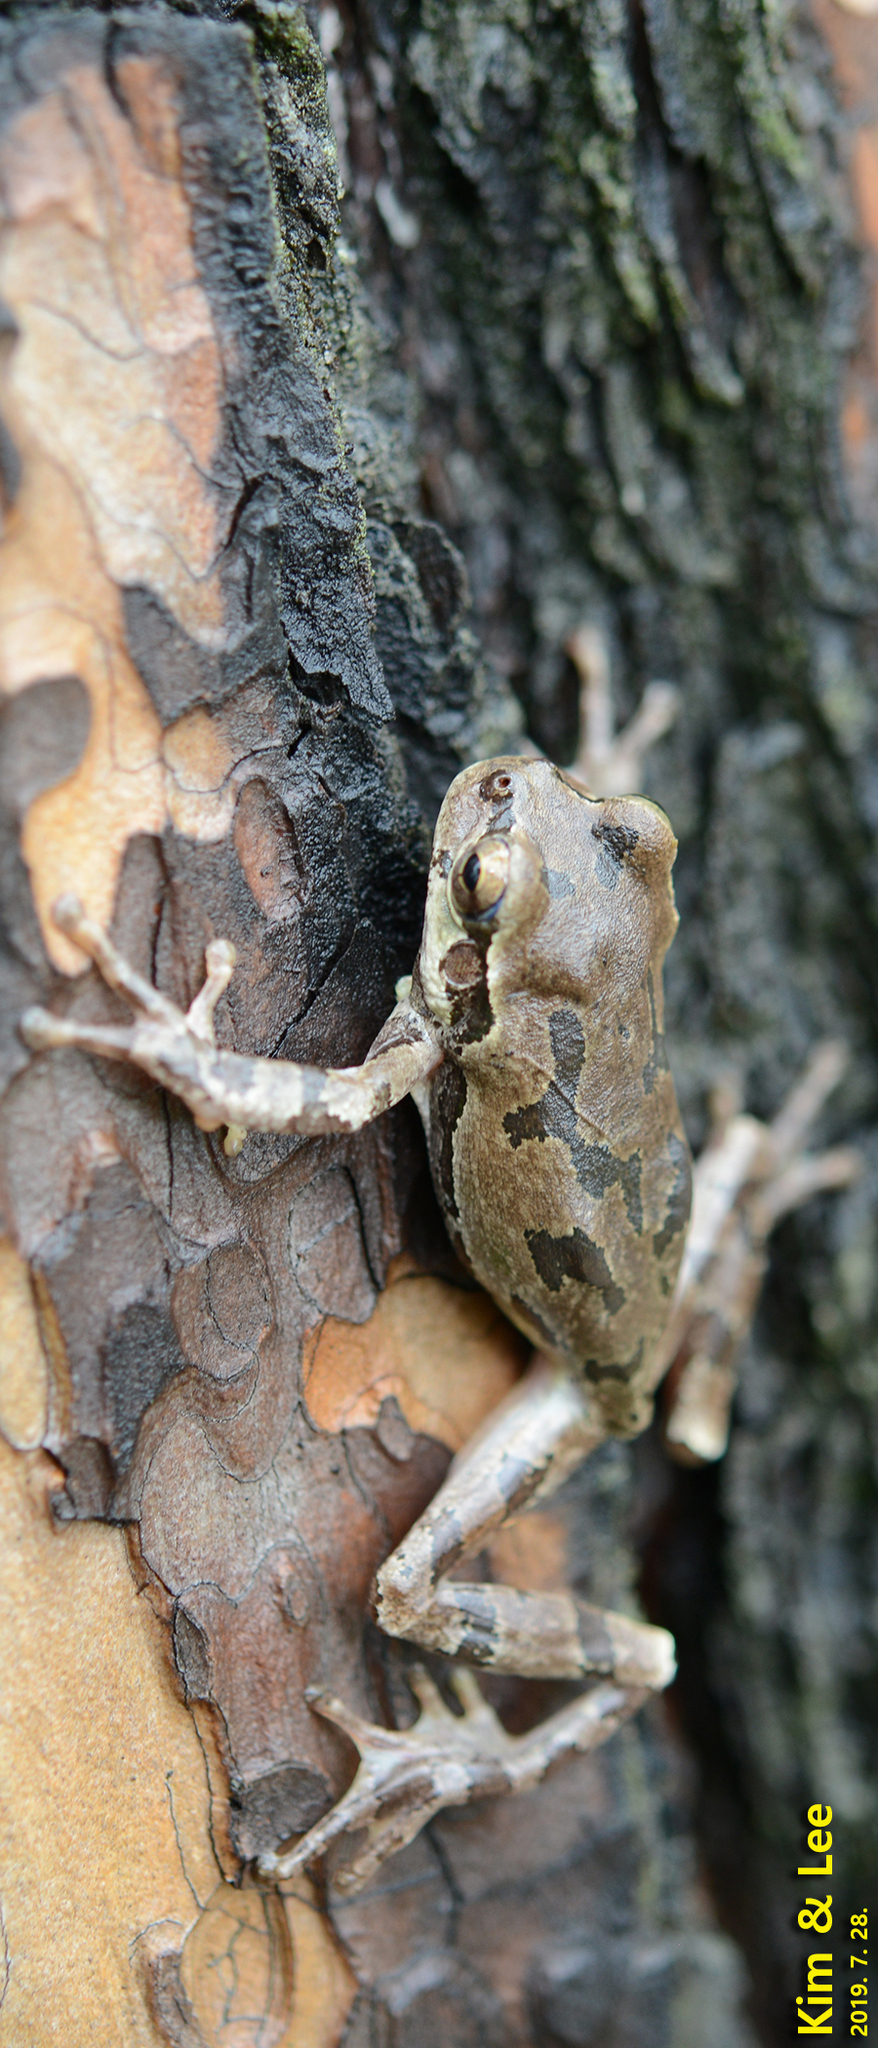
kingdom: Animalia
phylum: Chordata
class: Amphibia
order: Anura
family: Hylidae
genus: Dryophytes
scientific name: Dryophytes japonicus
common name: Japanese treefrog
